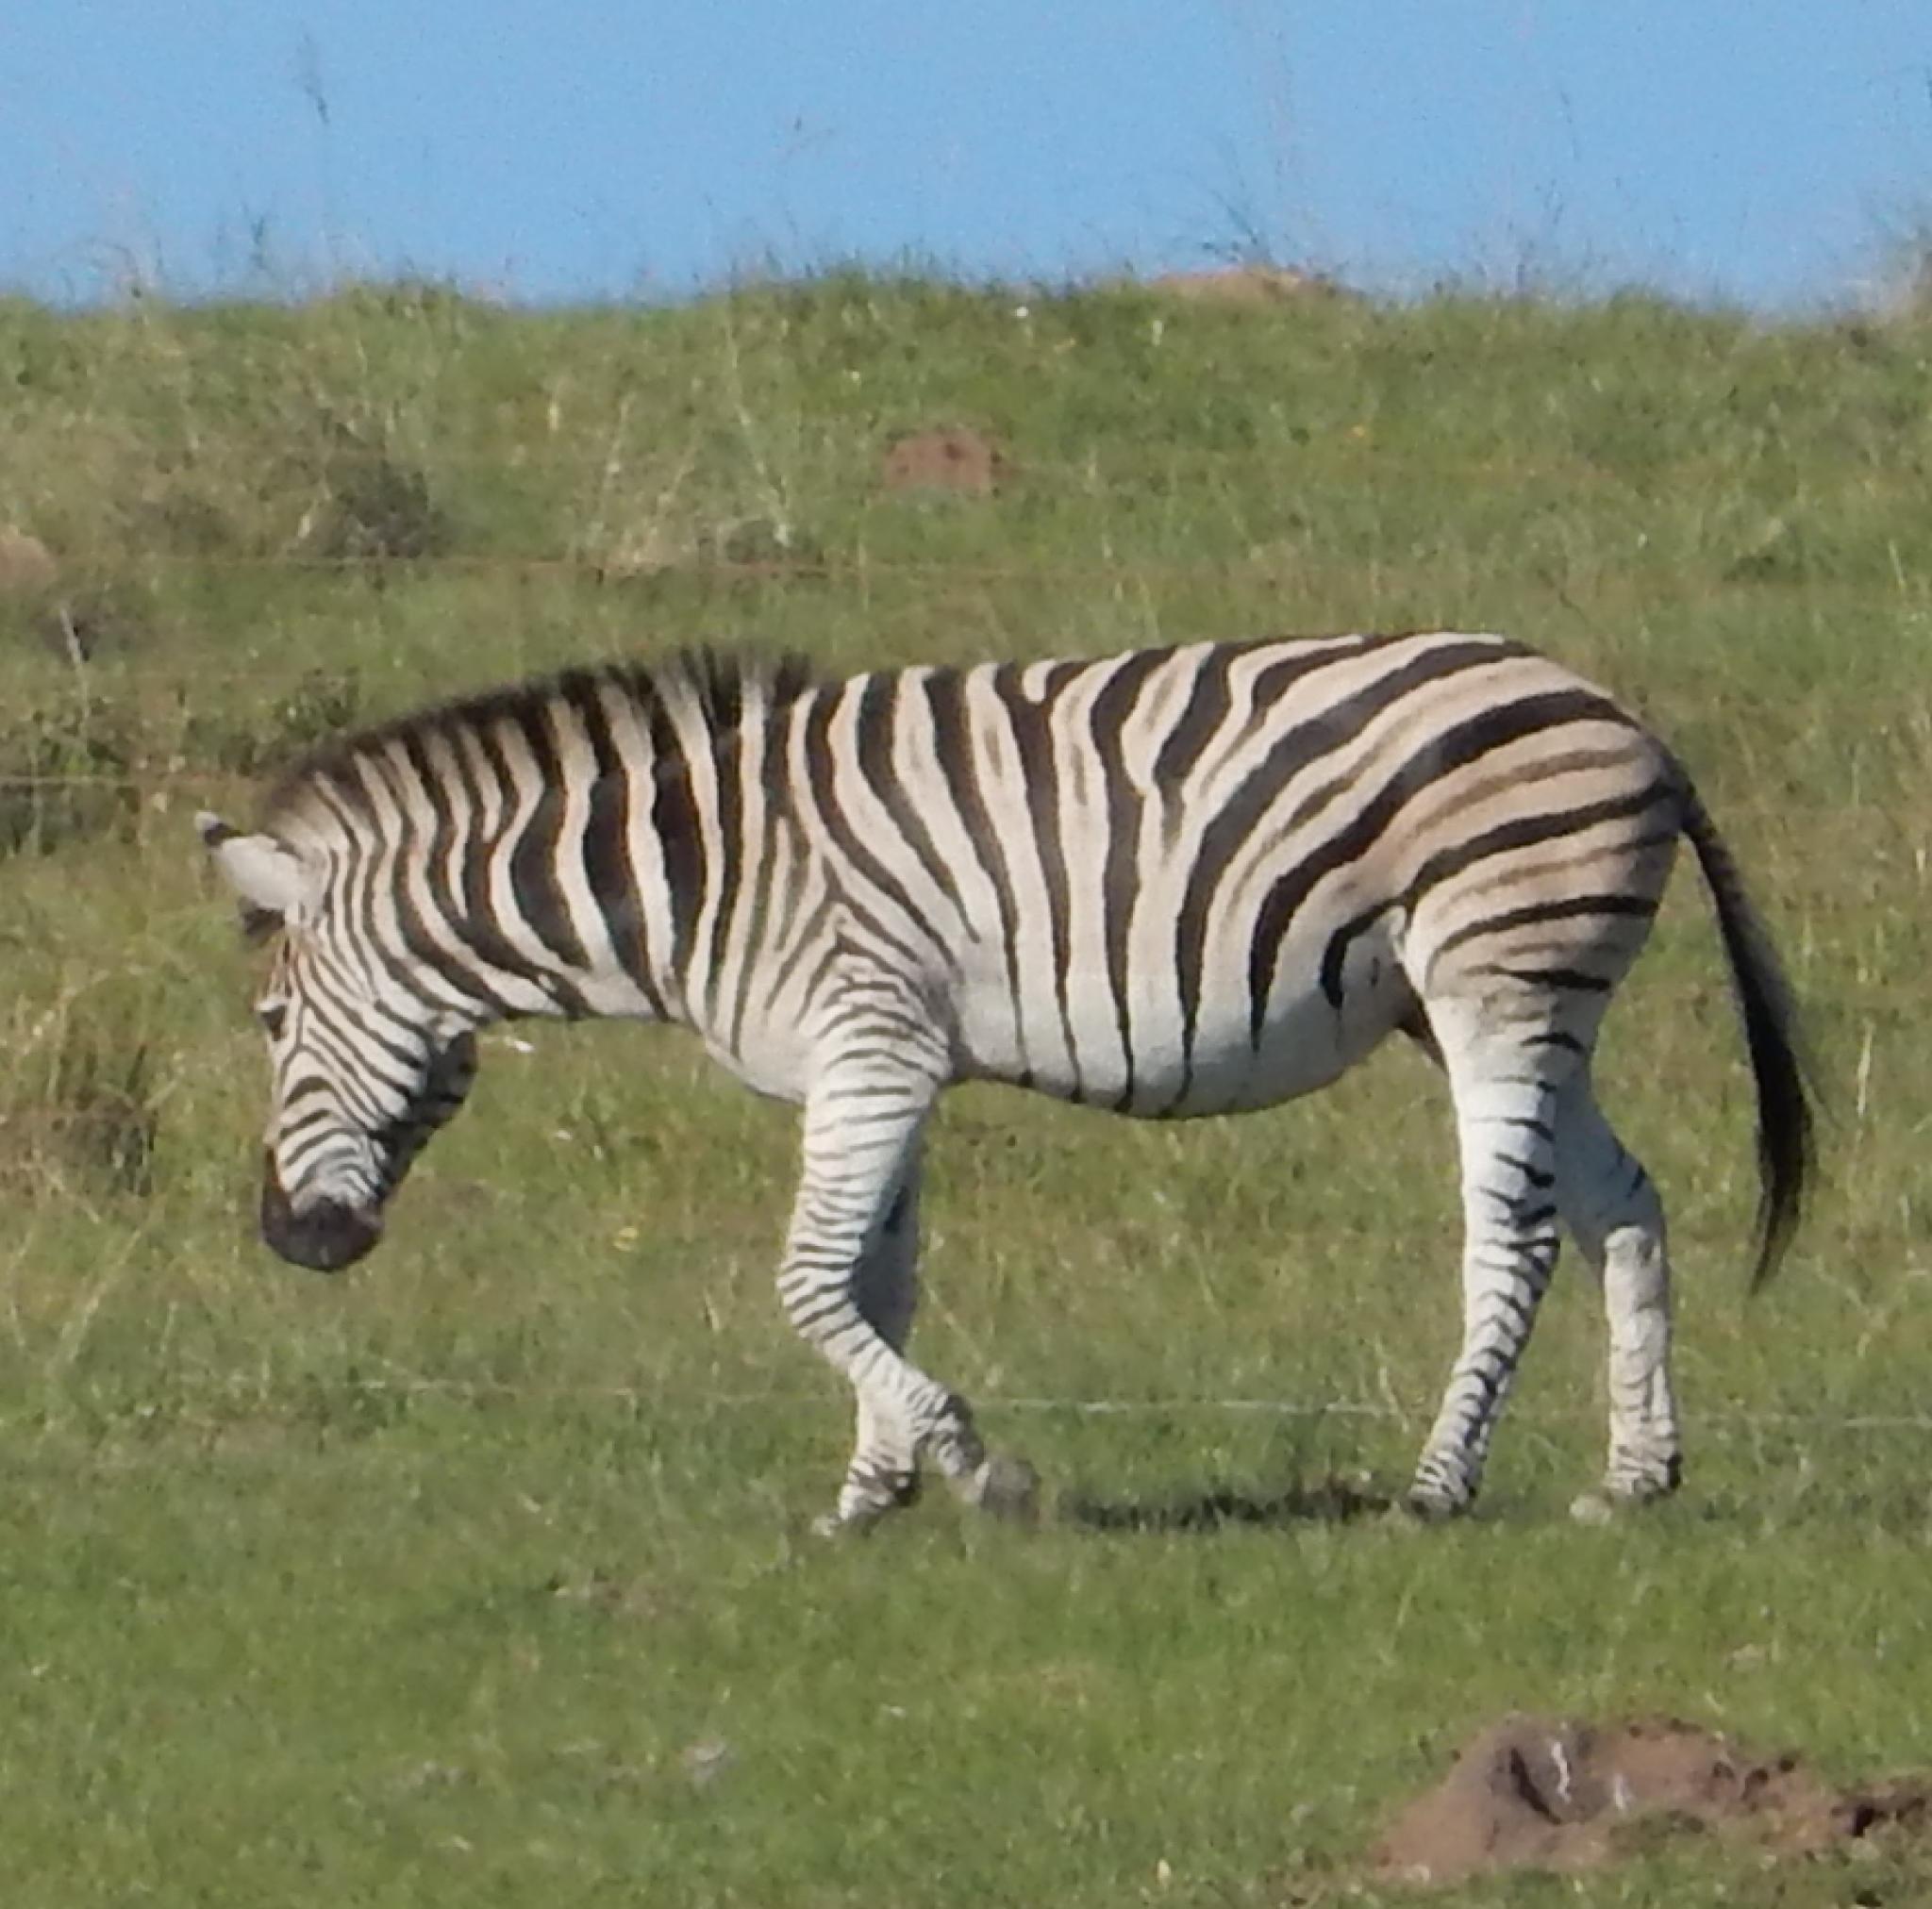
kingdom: Animalia
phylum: Chordata
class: Mammalia
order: Perissodactyla
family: Equidae
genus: Equus
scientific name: Equus quagga
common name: Plains zebra
